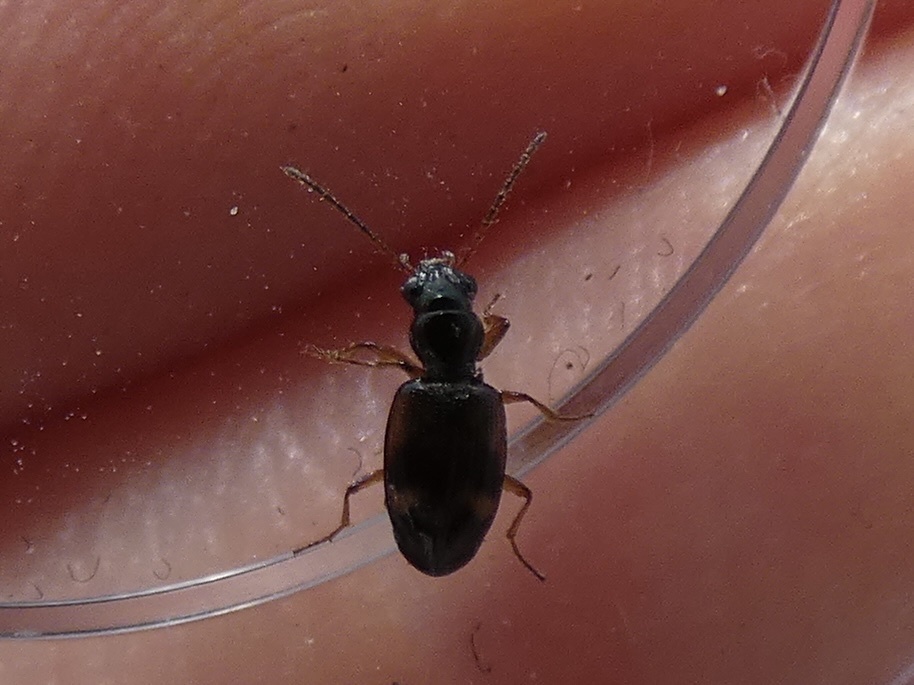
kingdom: Animalia
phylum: Arthropoda
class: Insecta
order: Coleoptera
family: Carabidae
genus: Bembidion
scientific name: Bembidion articulatum
